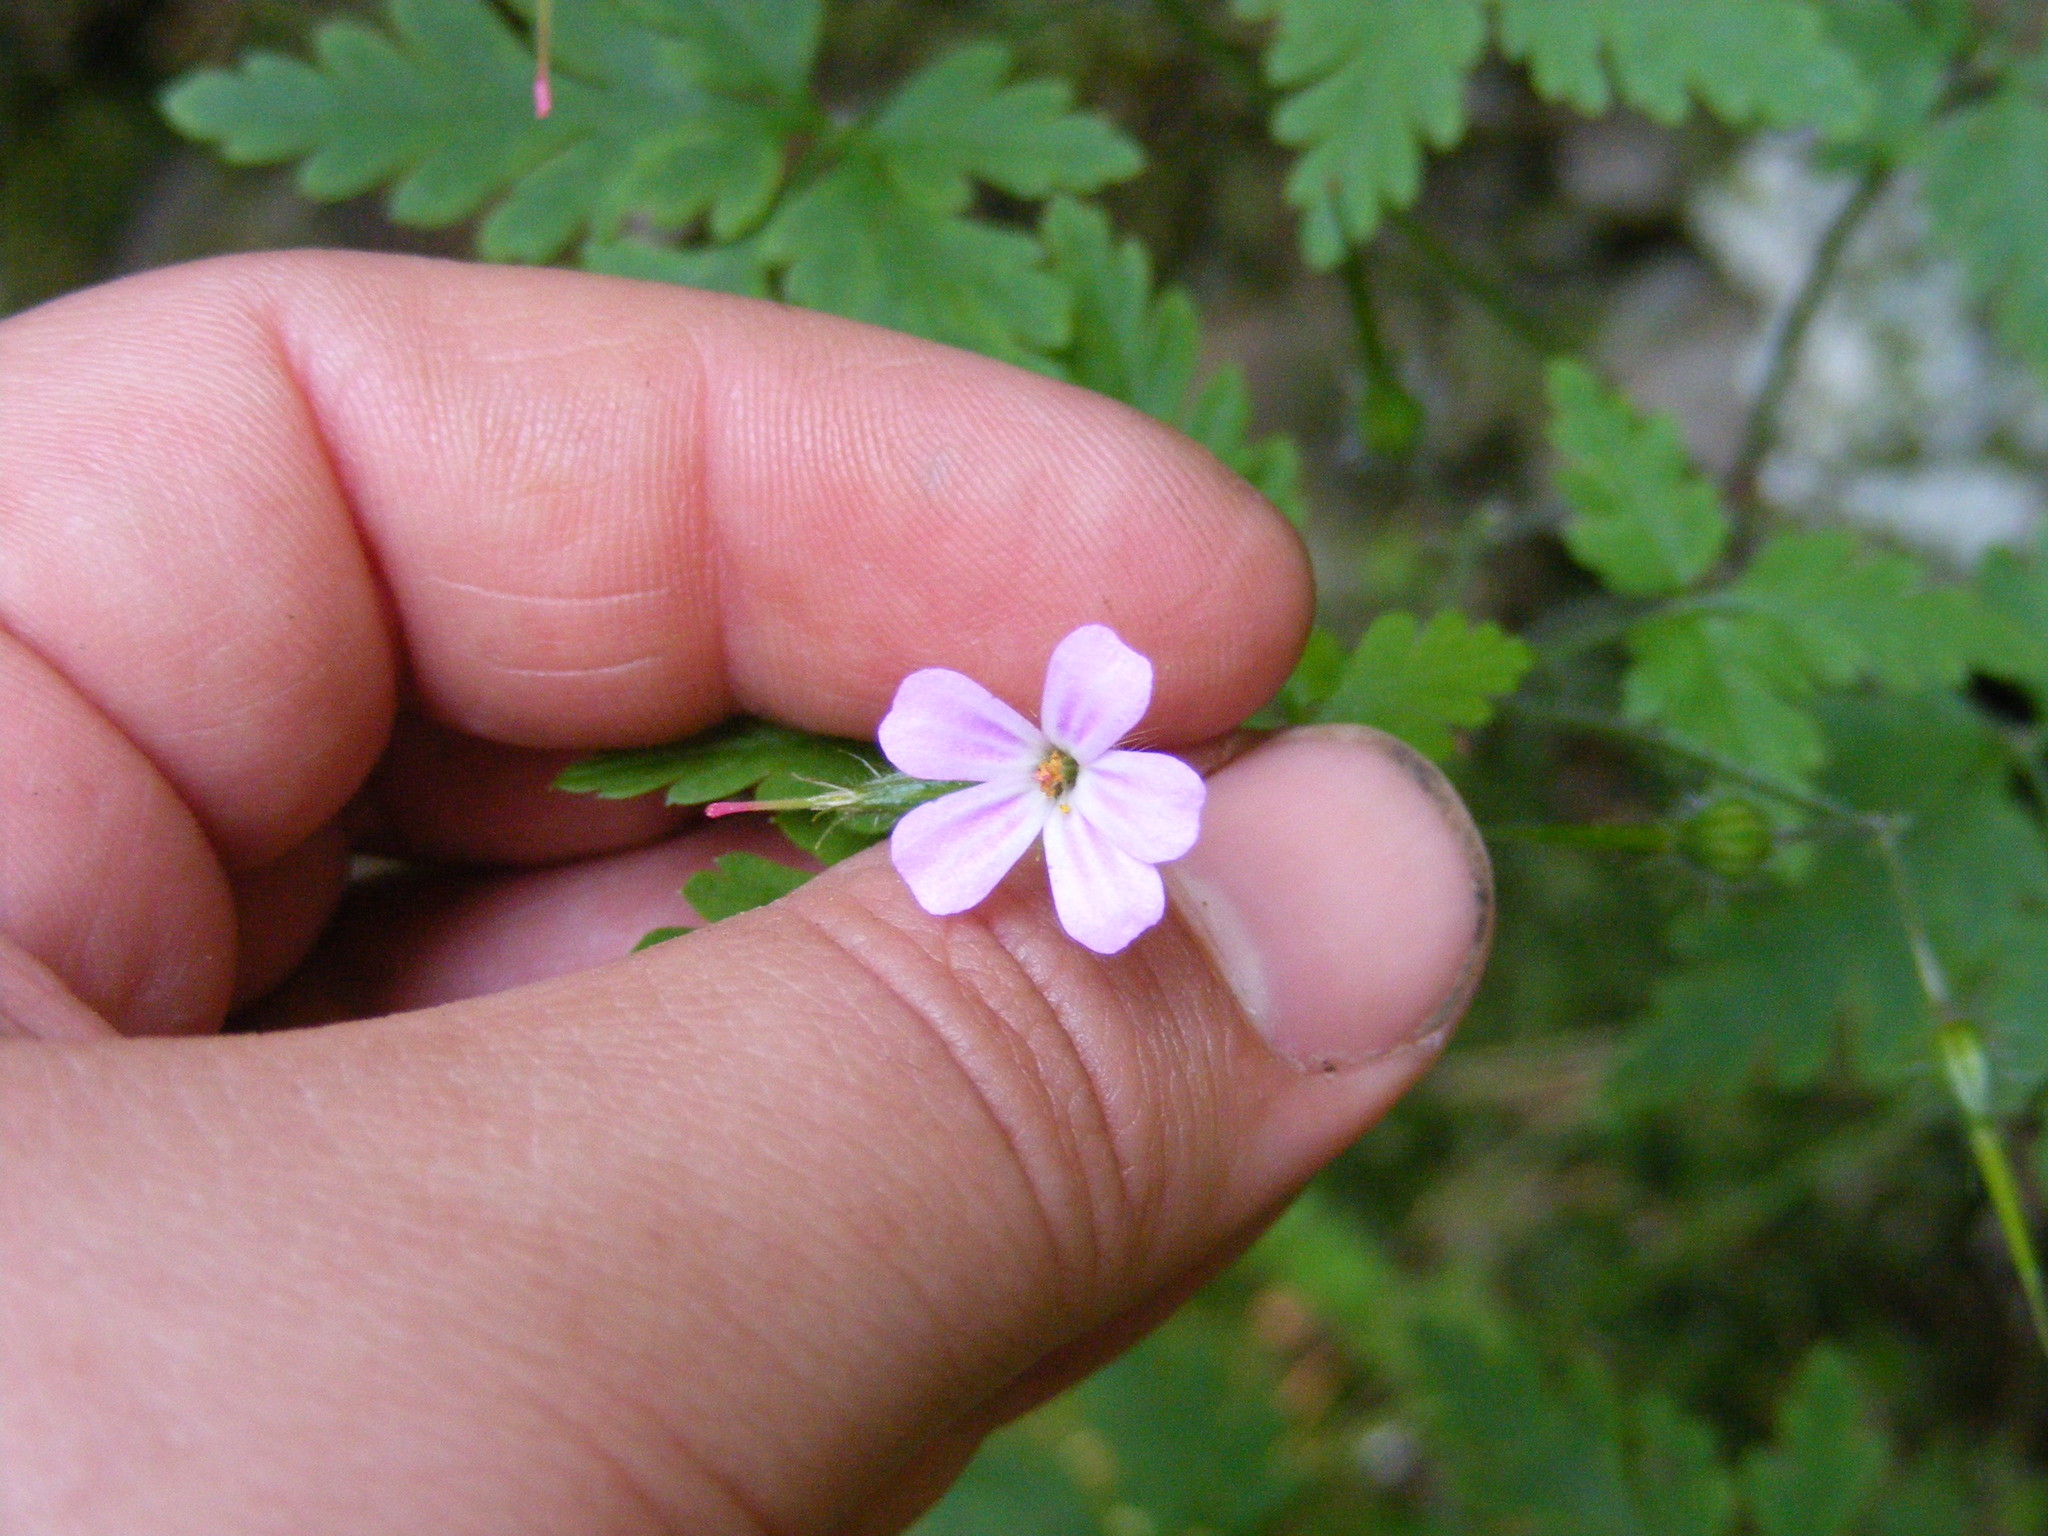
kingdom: Plantae
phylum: Tracheophyta
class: Magnoliopsida
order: Geraniales
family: Geraniaceae
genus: Geranium
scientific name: Geranium robertianum
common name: Herb-robert
